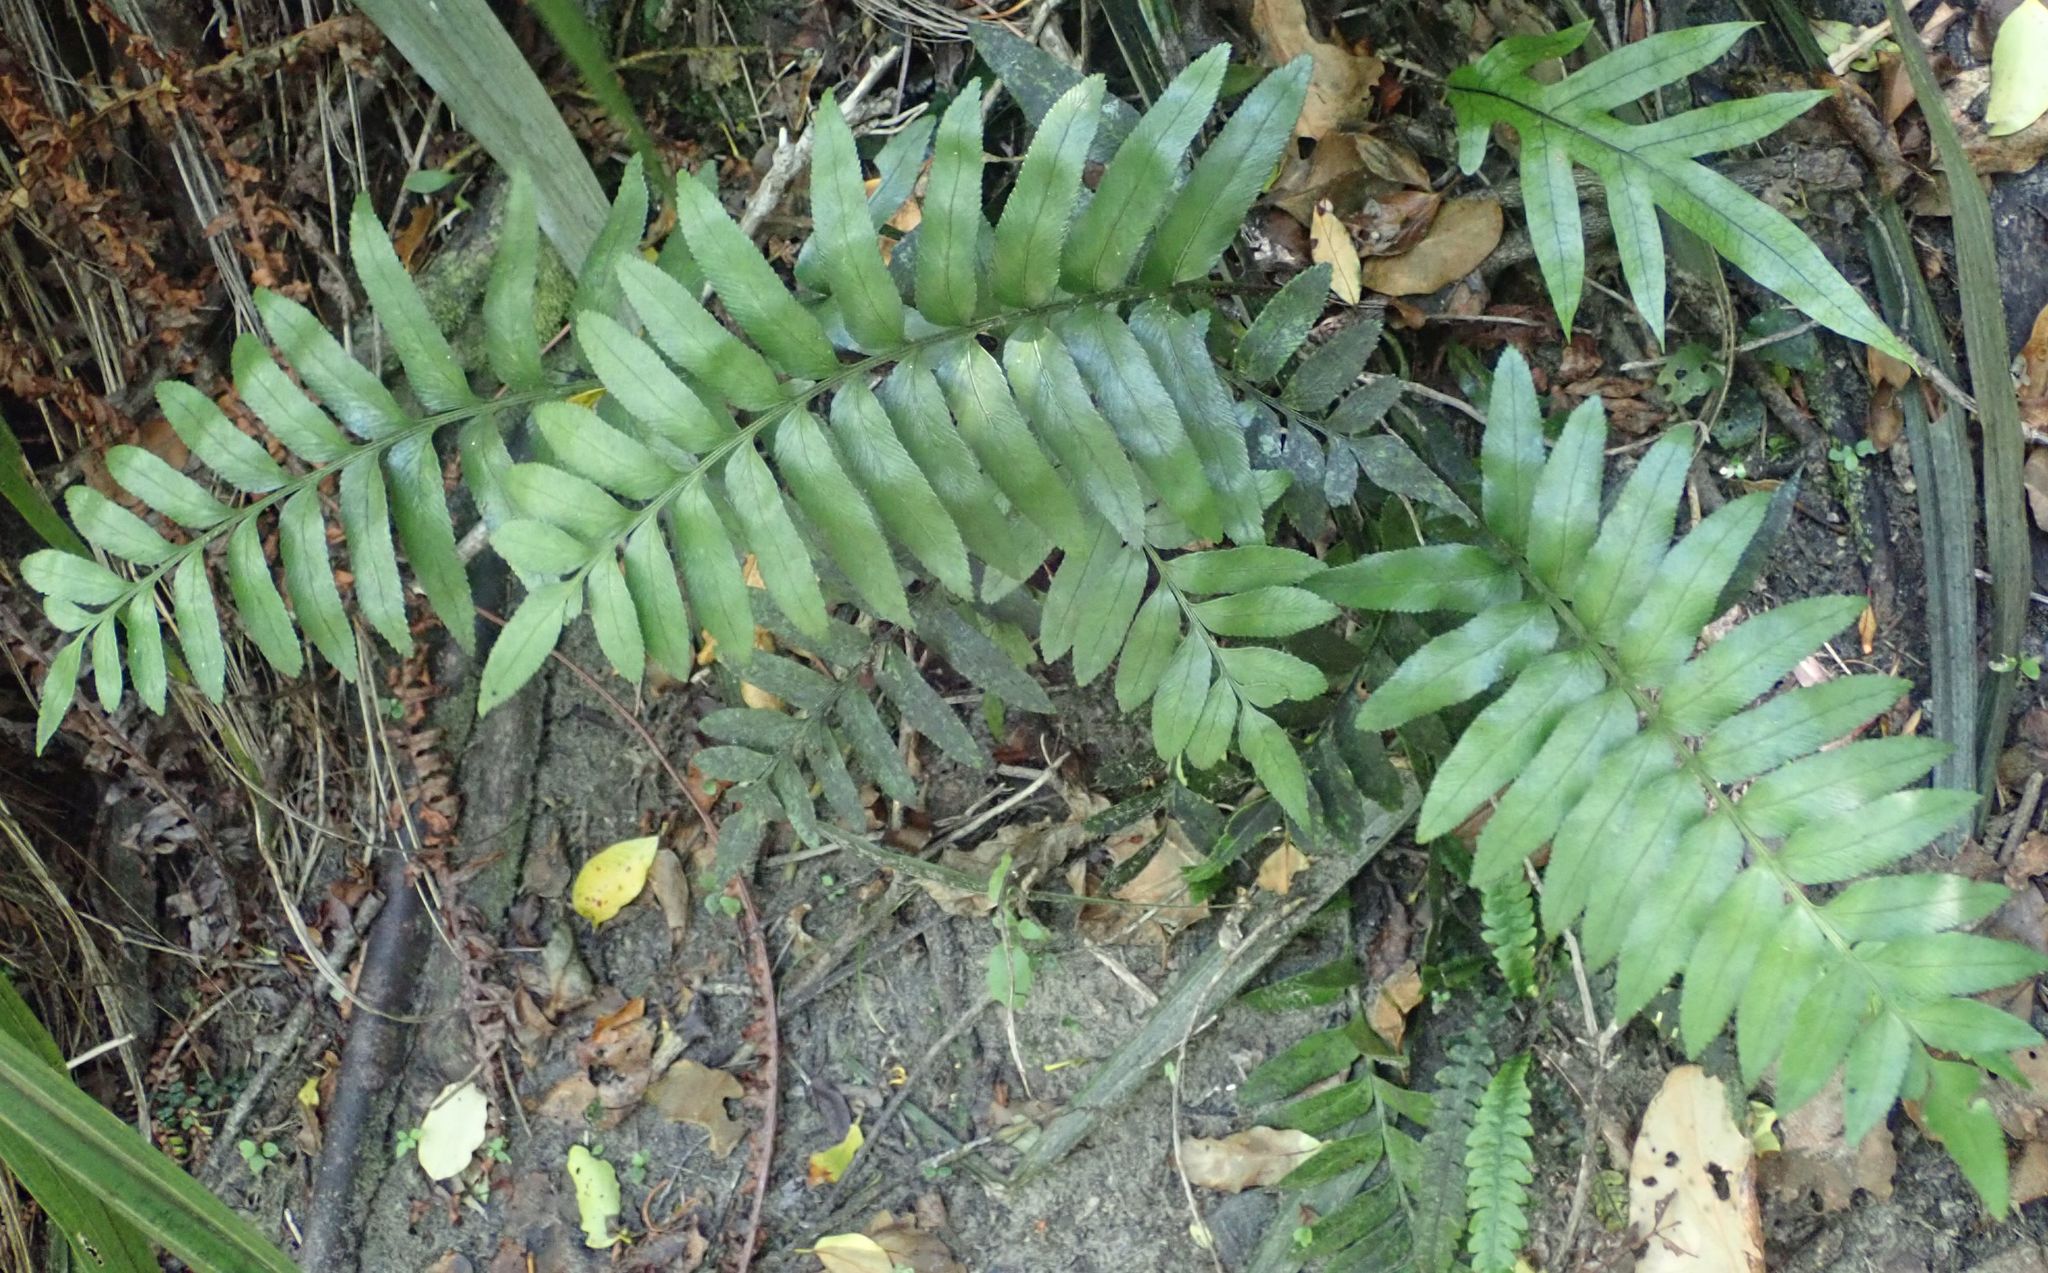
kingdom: Plantae
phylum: Tracheophyta
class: Polypodiopsida
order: Polypodiales
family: Aspleniaceae
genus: Asplenium
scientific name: Asplenium obtusatum
